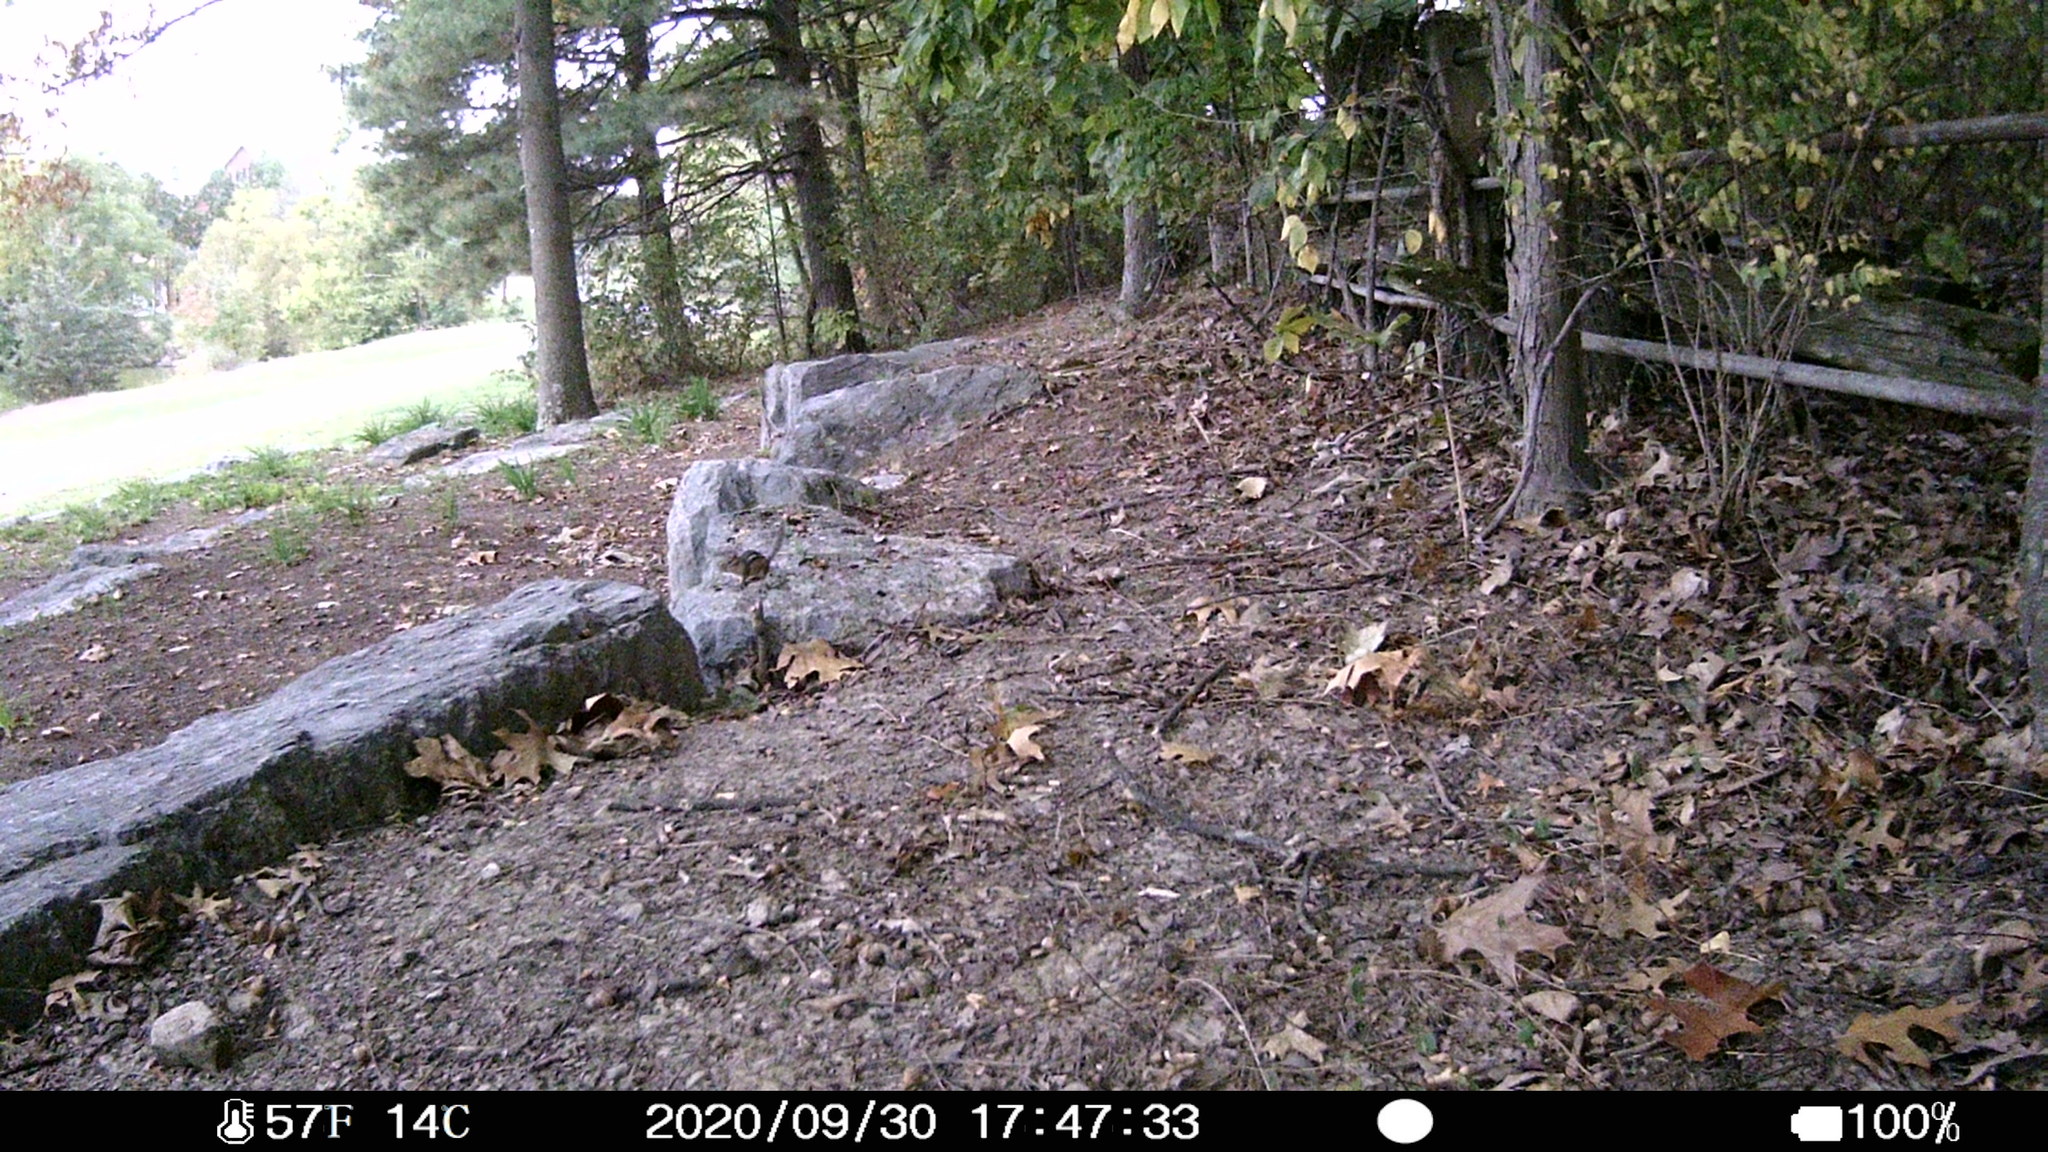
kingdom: Animalia
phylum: Chordata
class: Mammalia
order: Rodentia
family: Sciuridae
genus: Tamias
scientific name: Tamias striatus
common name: Eastern chipmunk
